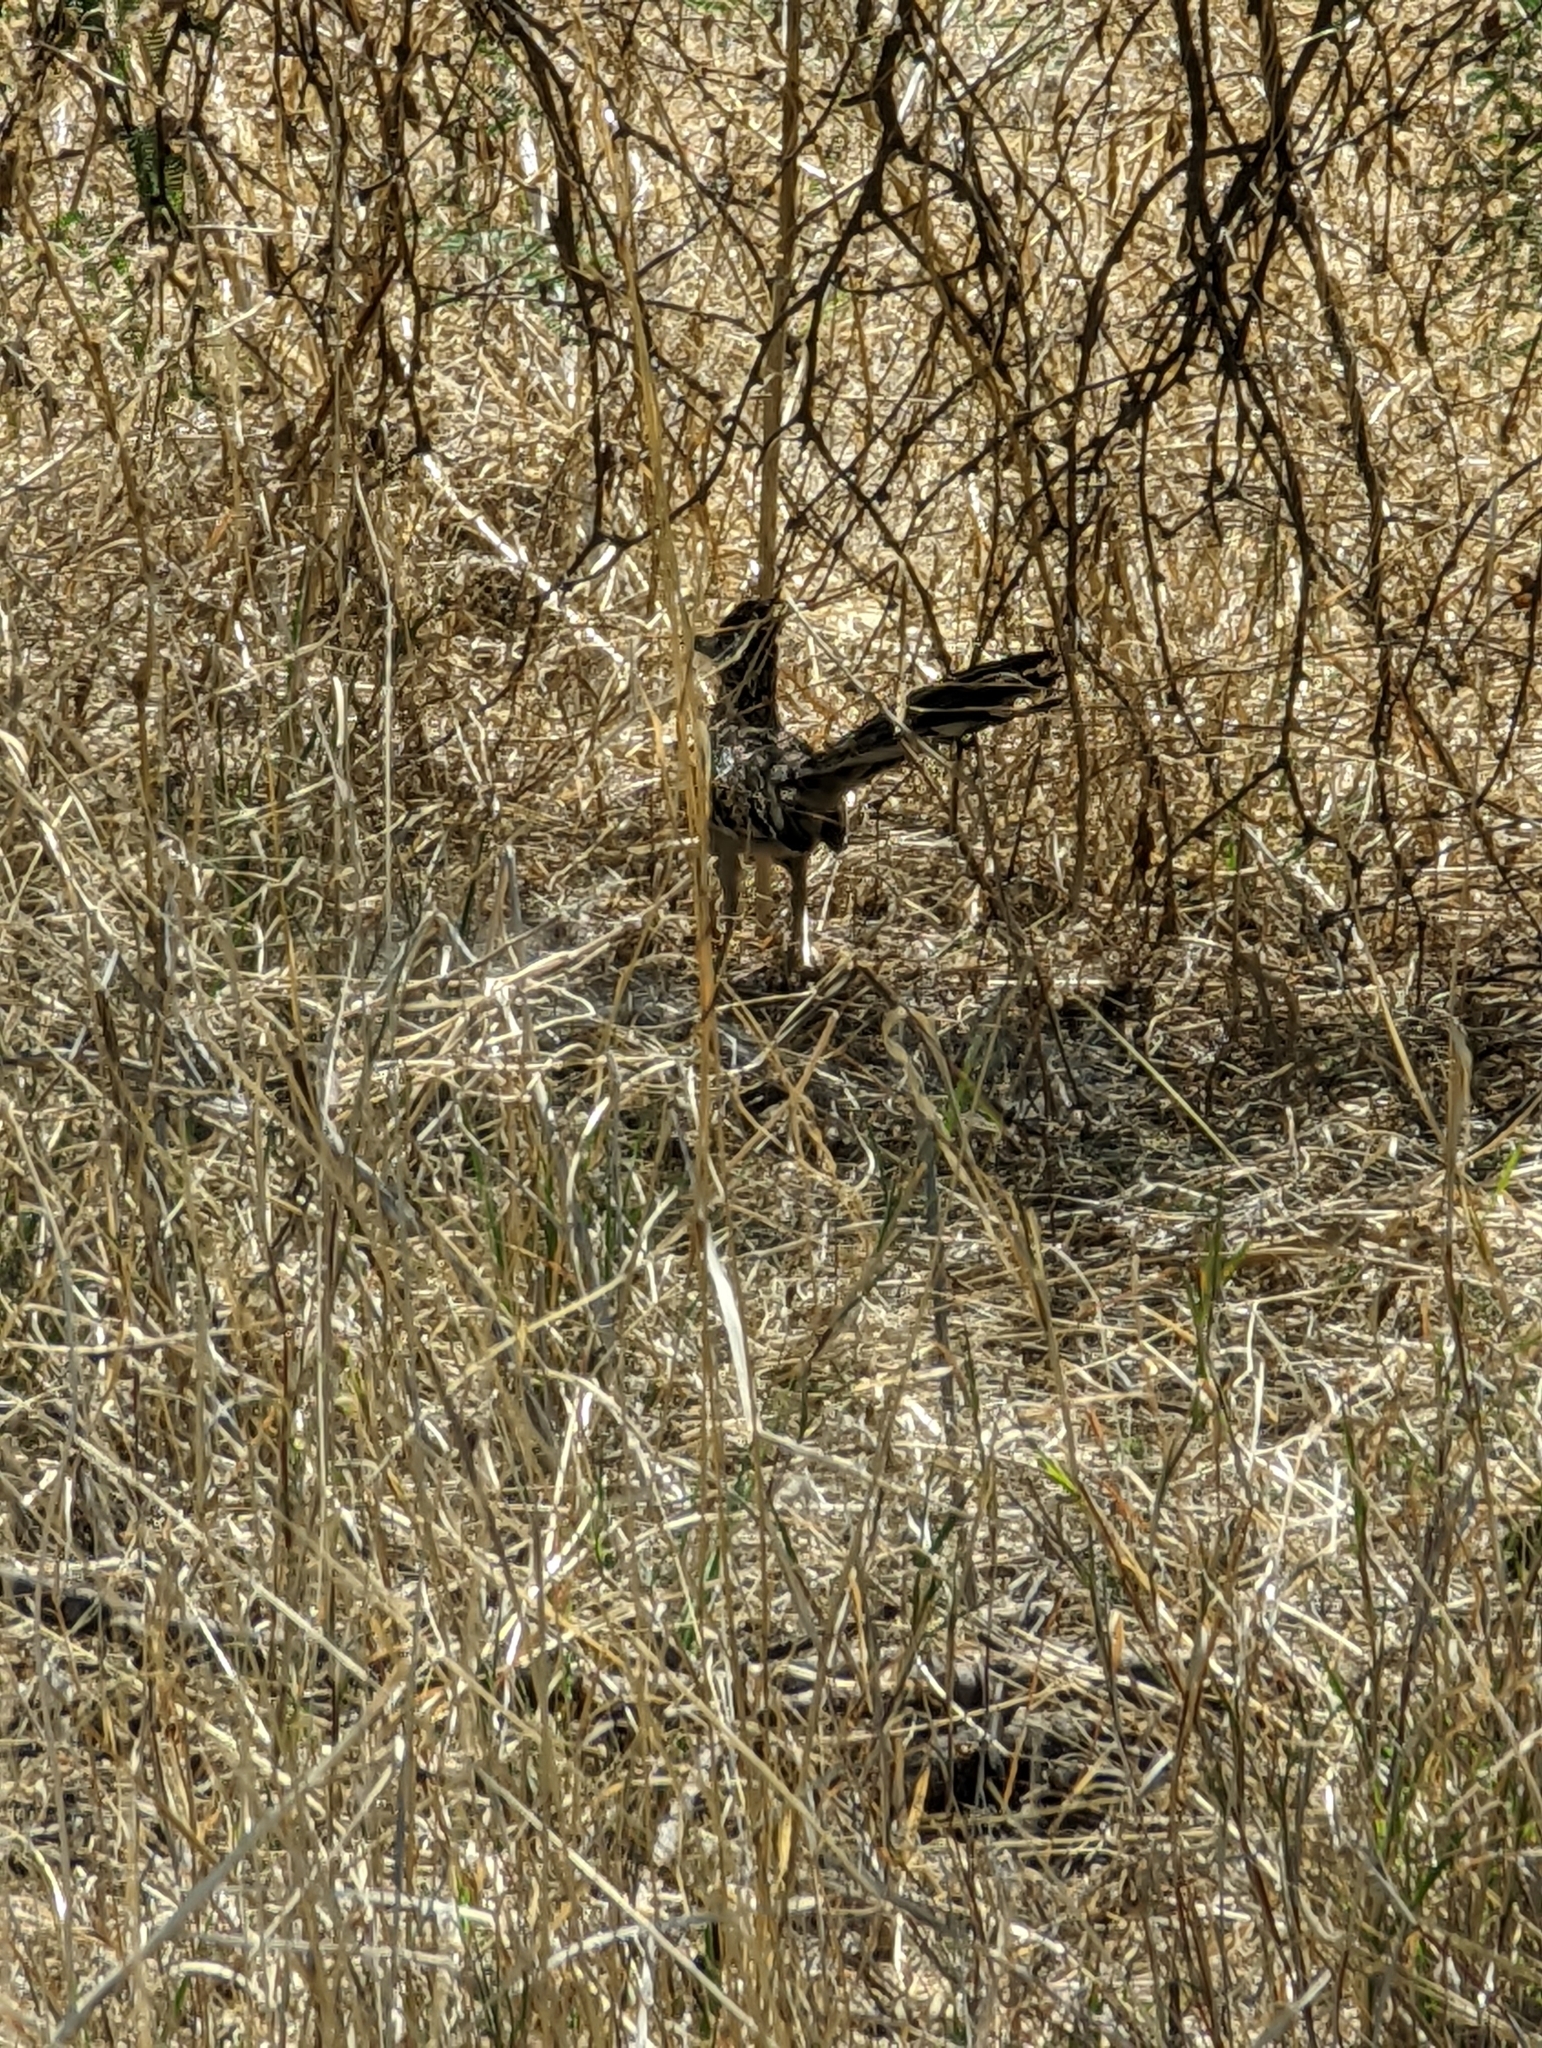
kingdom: Animalia
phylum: Chordata
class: Aves
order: Cuculiformes
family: Cuculidae
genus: Geococcyx
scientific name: Geococcyx californianus
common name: Greater roadrunner
